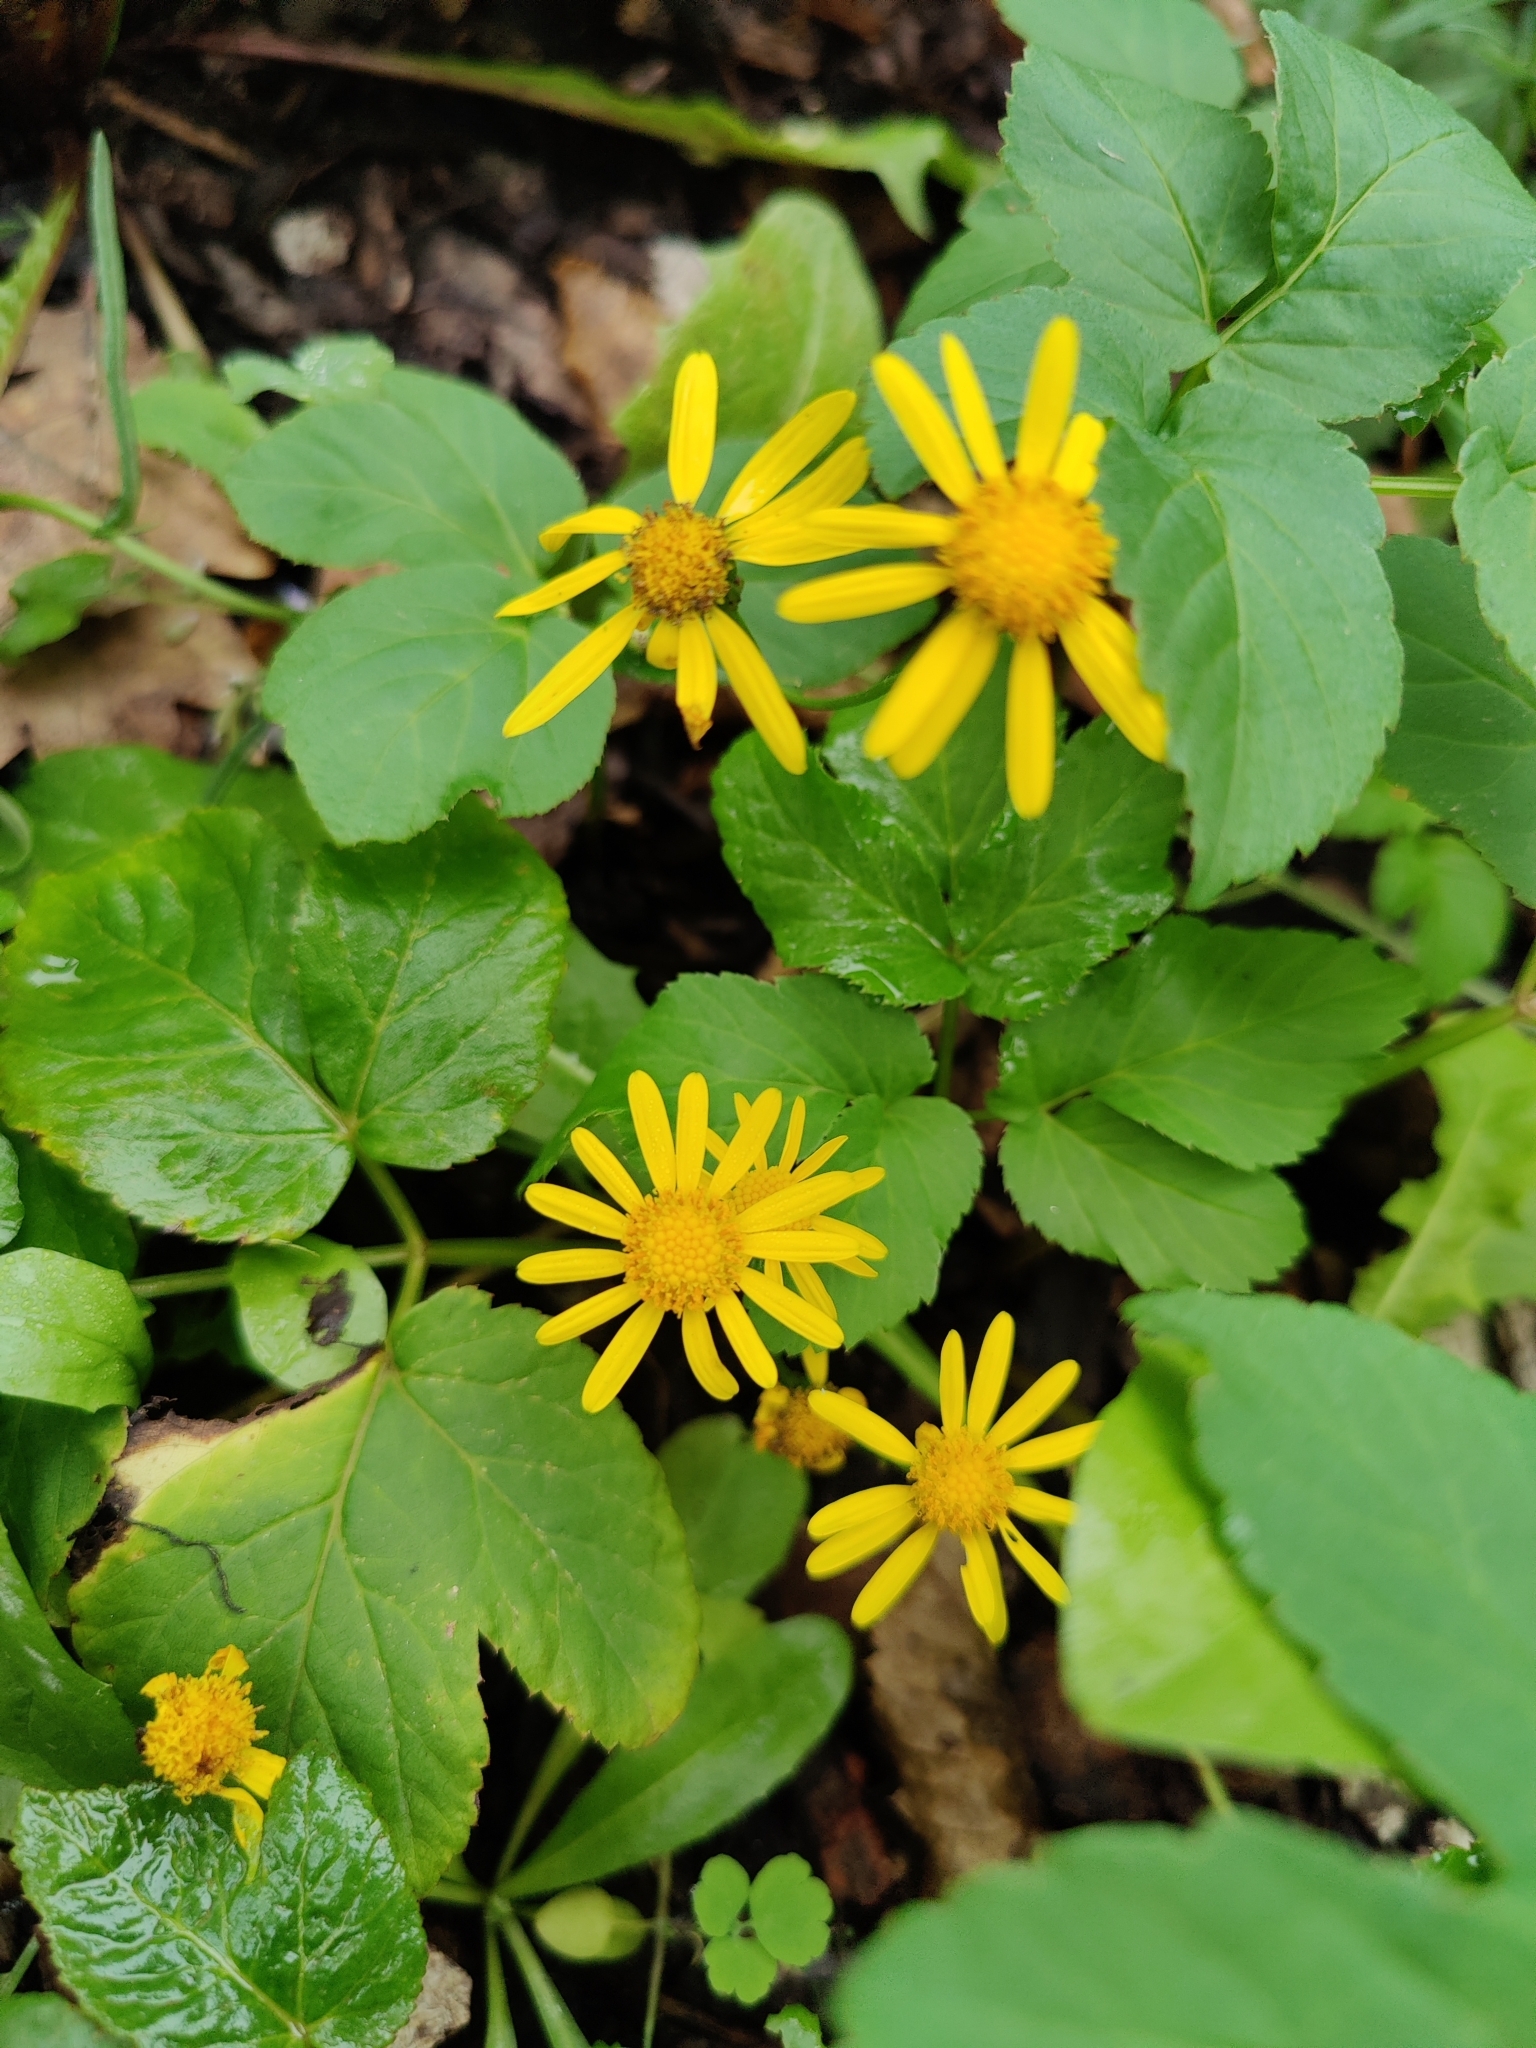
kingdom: Plantae
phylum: Tracheophyta
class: Magnoliopsida
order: Asterales
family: Asteraceae
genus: Senecio
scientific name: Senecio inaequidens
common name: Narrow-leaved ragwort
